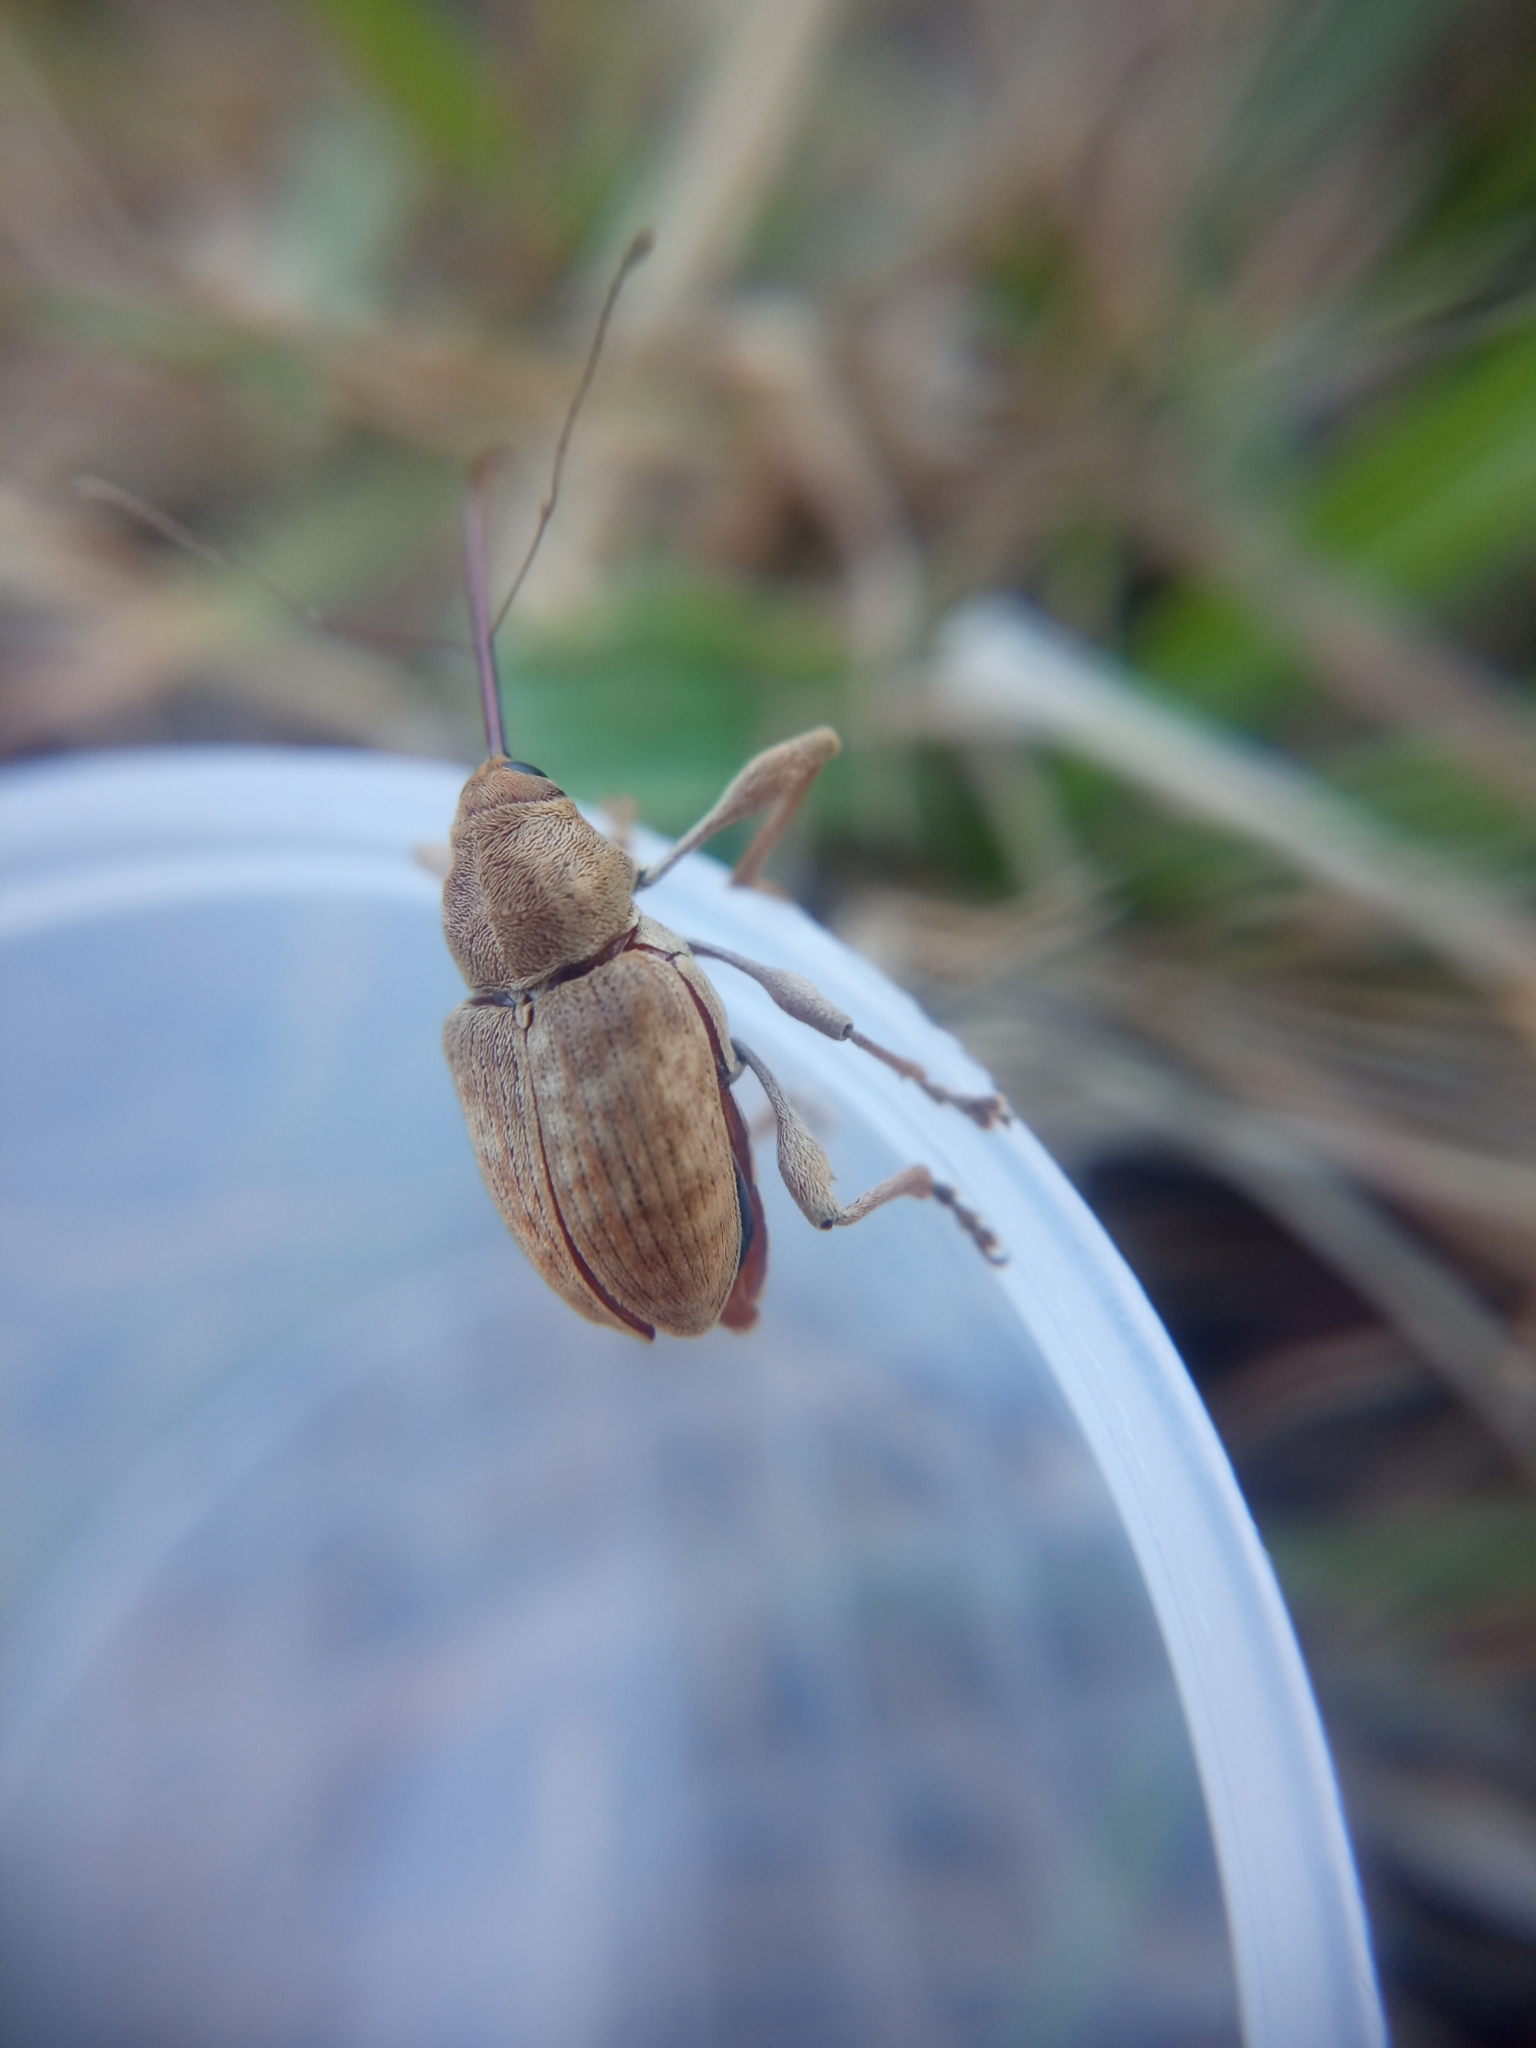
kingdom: Animalia
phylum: Arthropoda
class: Insecta
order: Coleoptera
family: Curculionidae
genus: Curculio
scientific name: Curculio elephas
